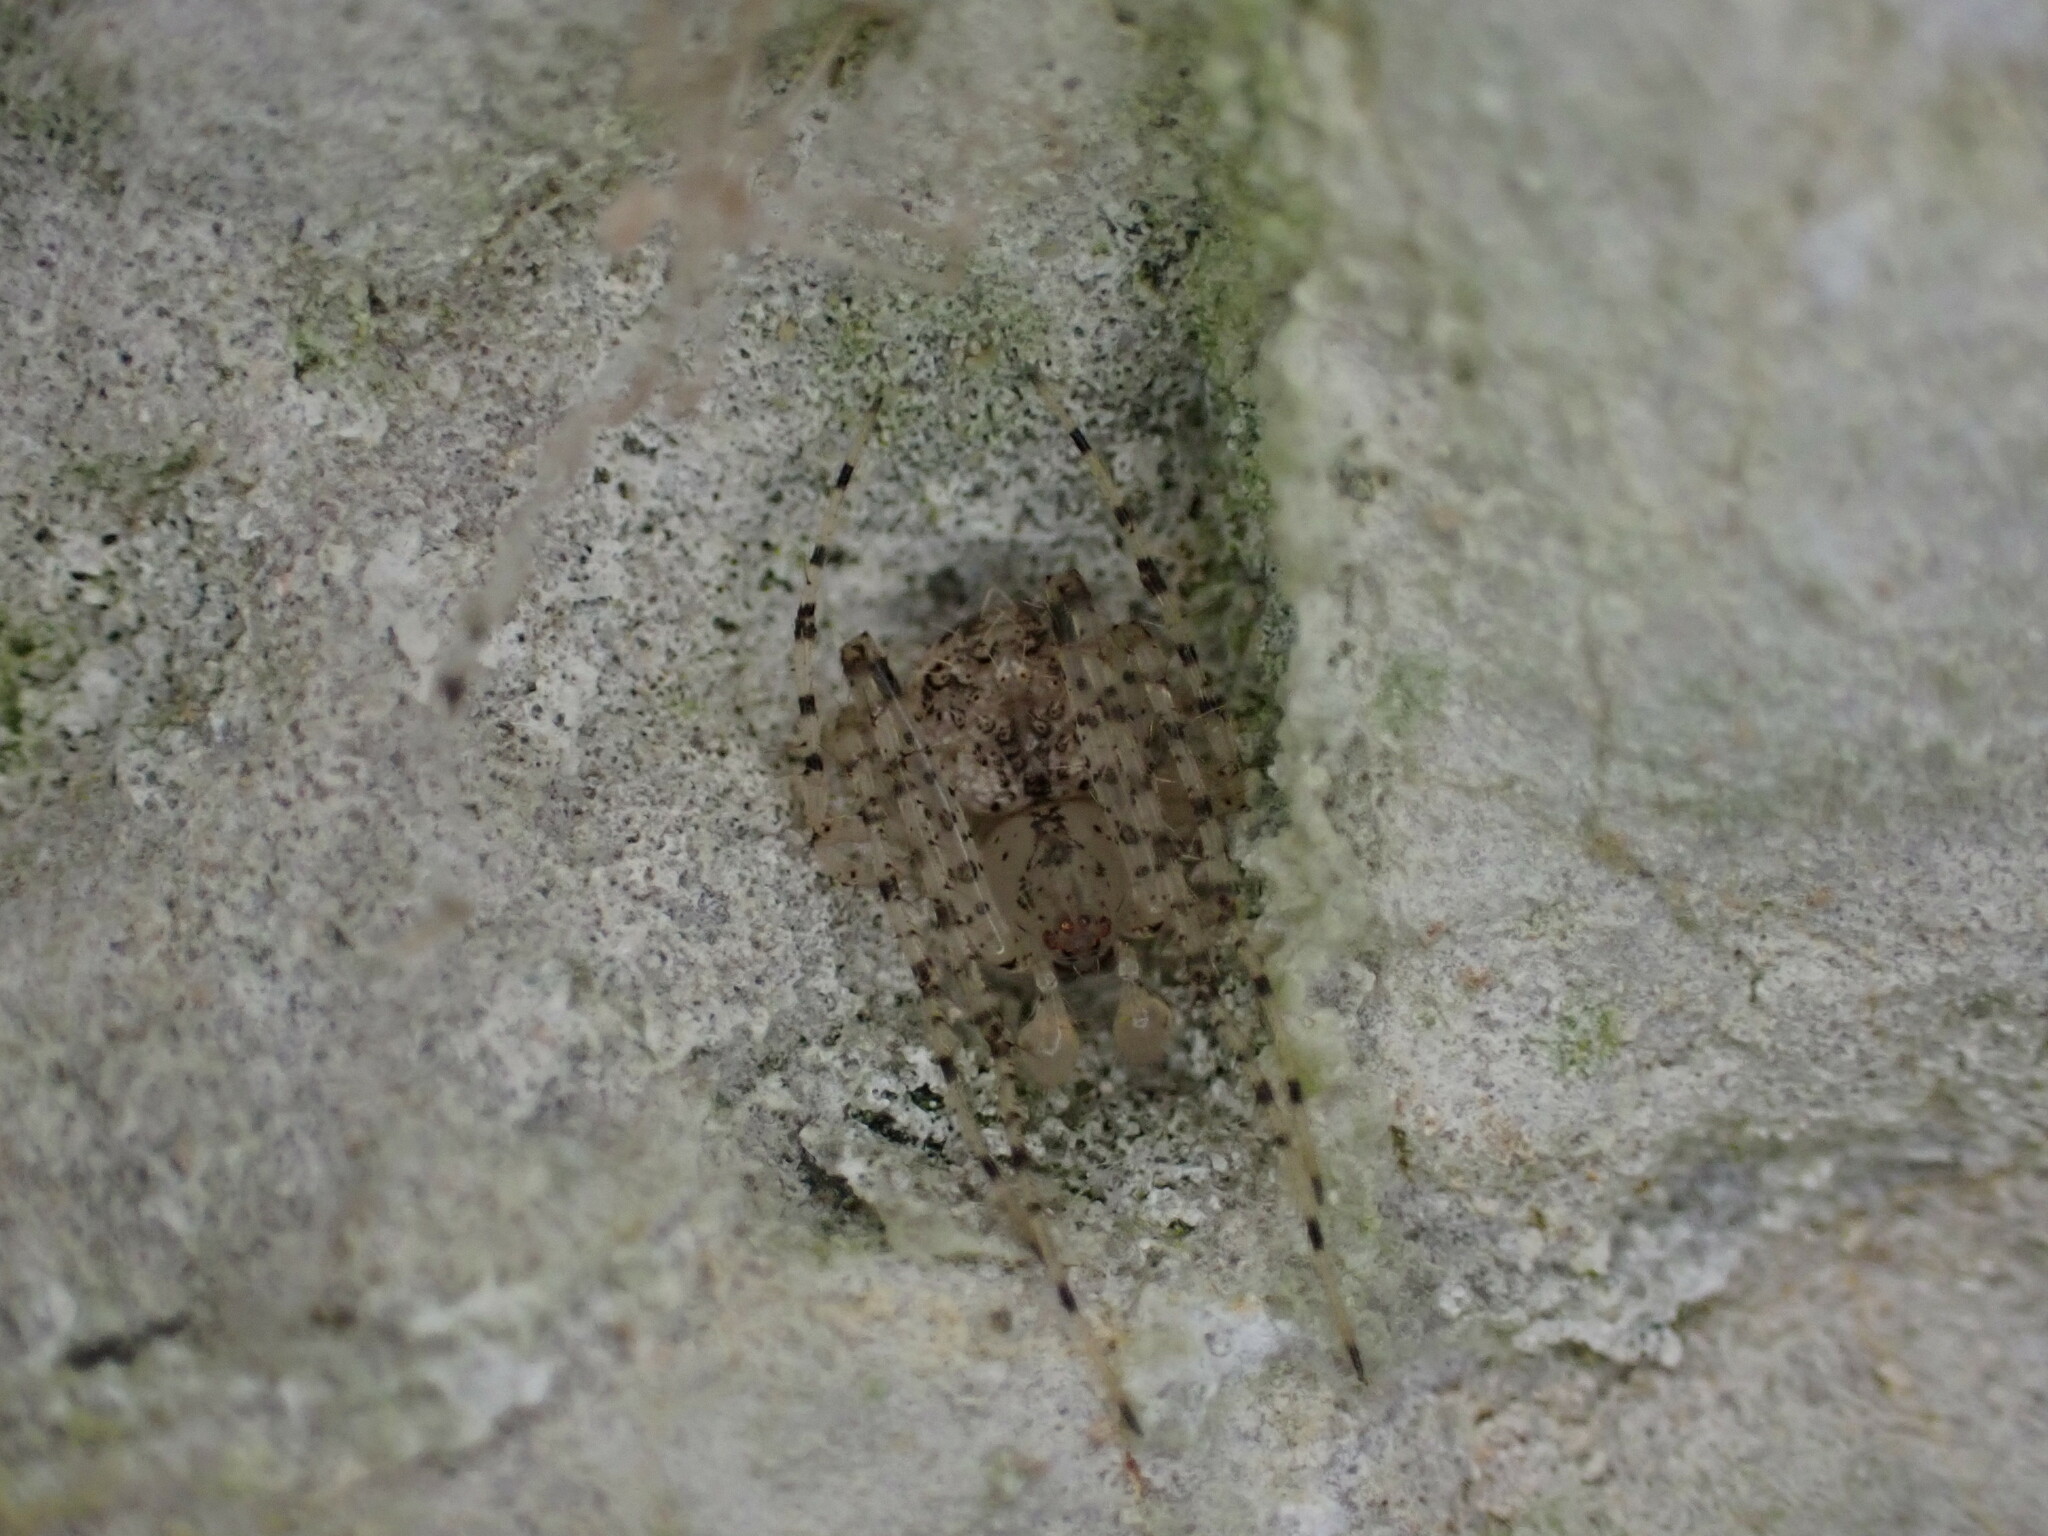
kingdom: Animalia
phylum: Arthropoda
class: Arachnida
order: Araneae
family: Mimetidae
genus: Mimetus
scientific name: Mimetus laevigatus
